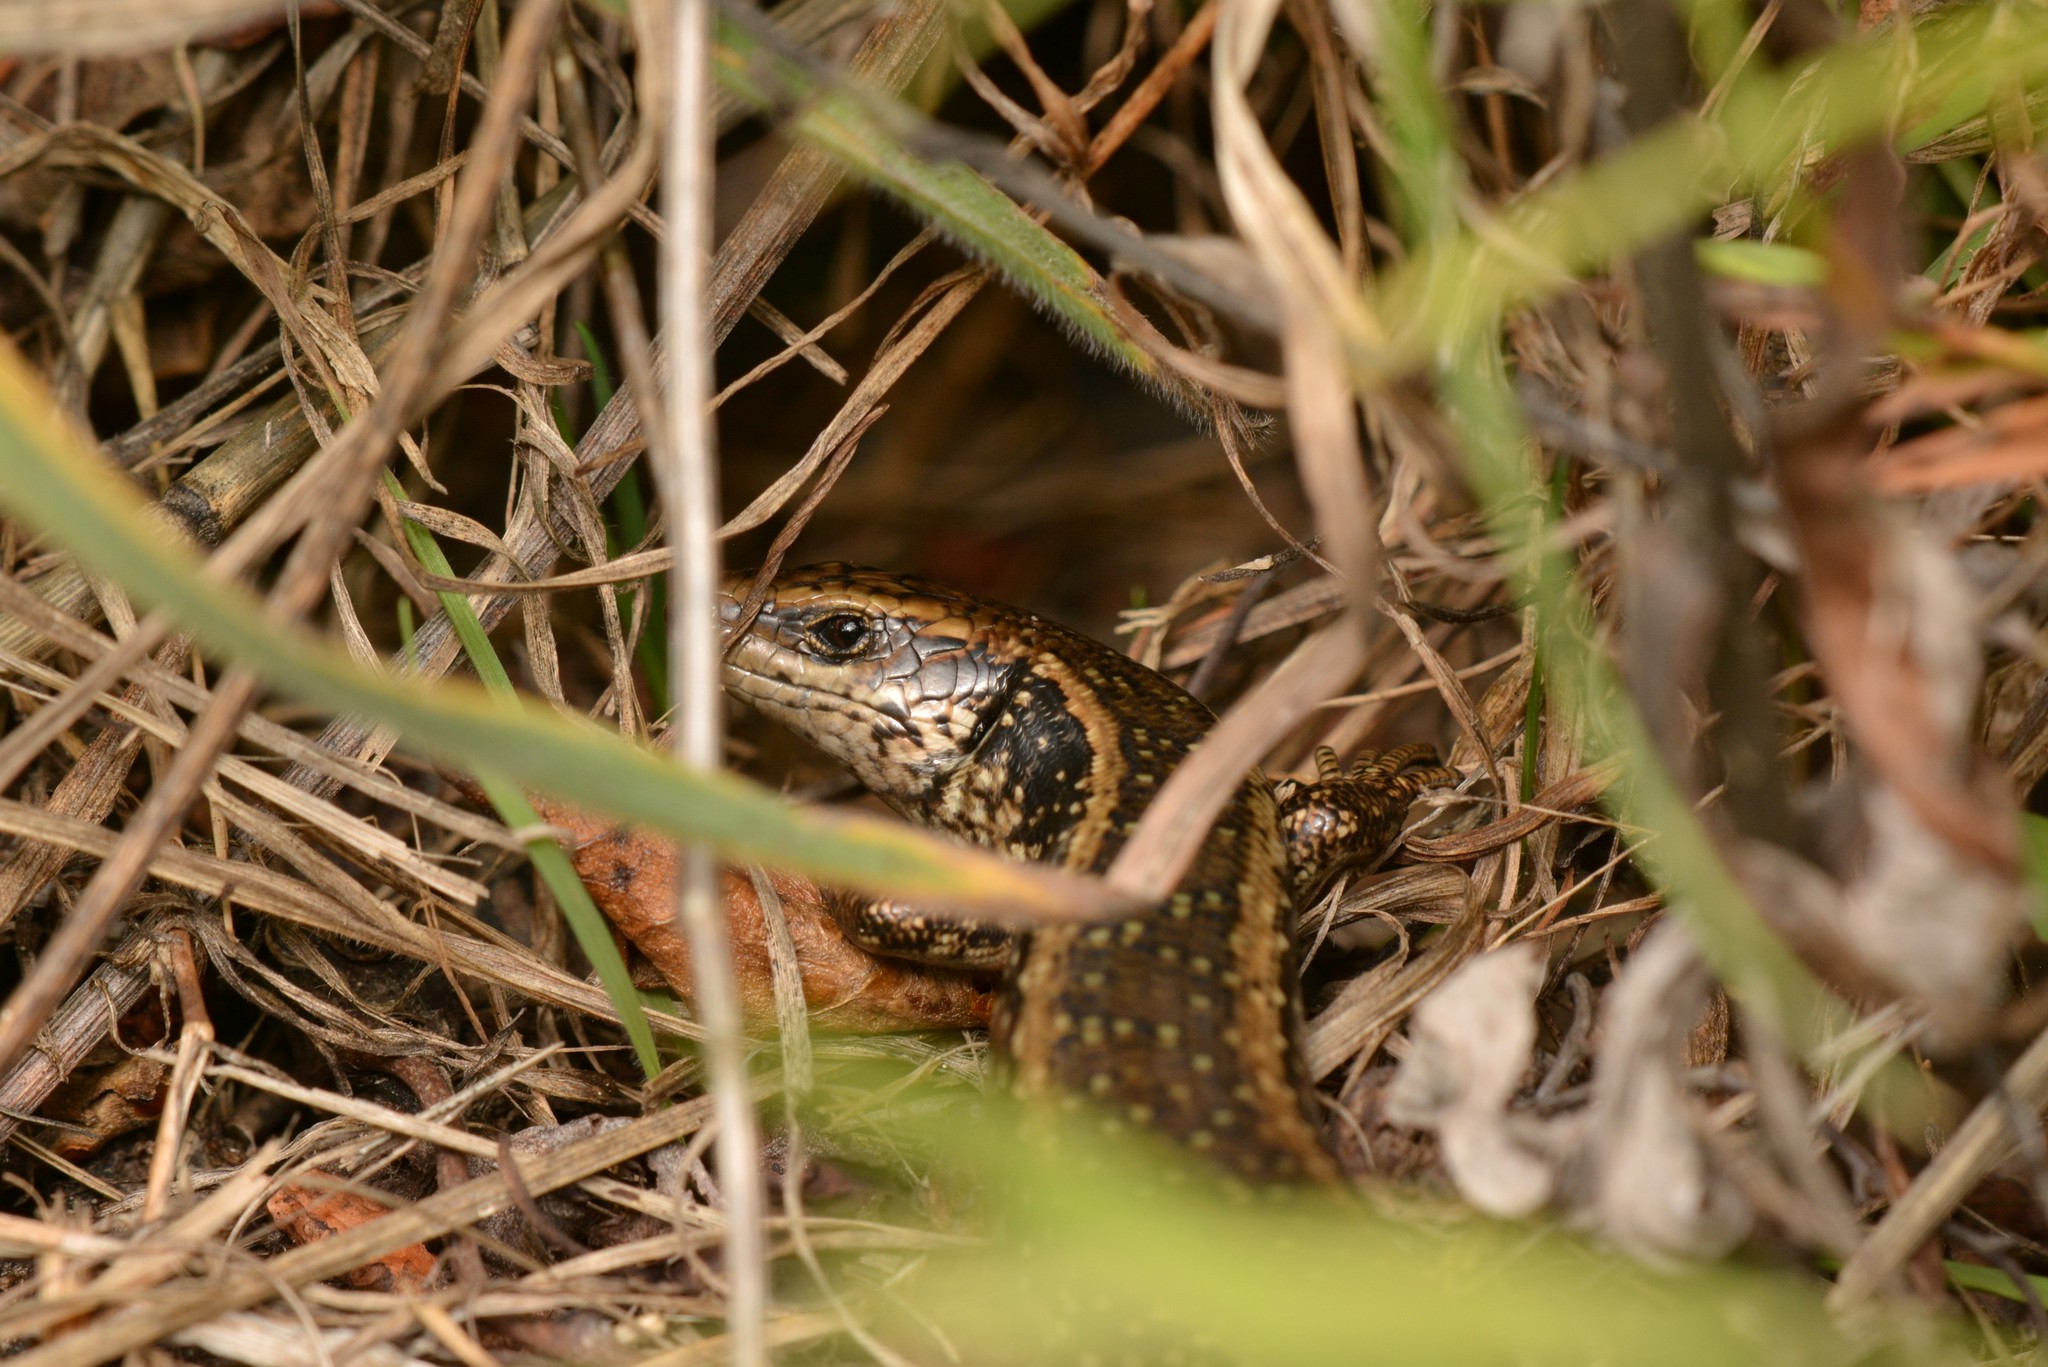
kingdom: Animalia
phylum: Chordata
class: Squamata
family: Scincidae
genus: Oligosoma
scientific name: Oligosoma kokowai
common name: Northern spotted skink
